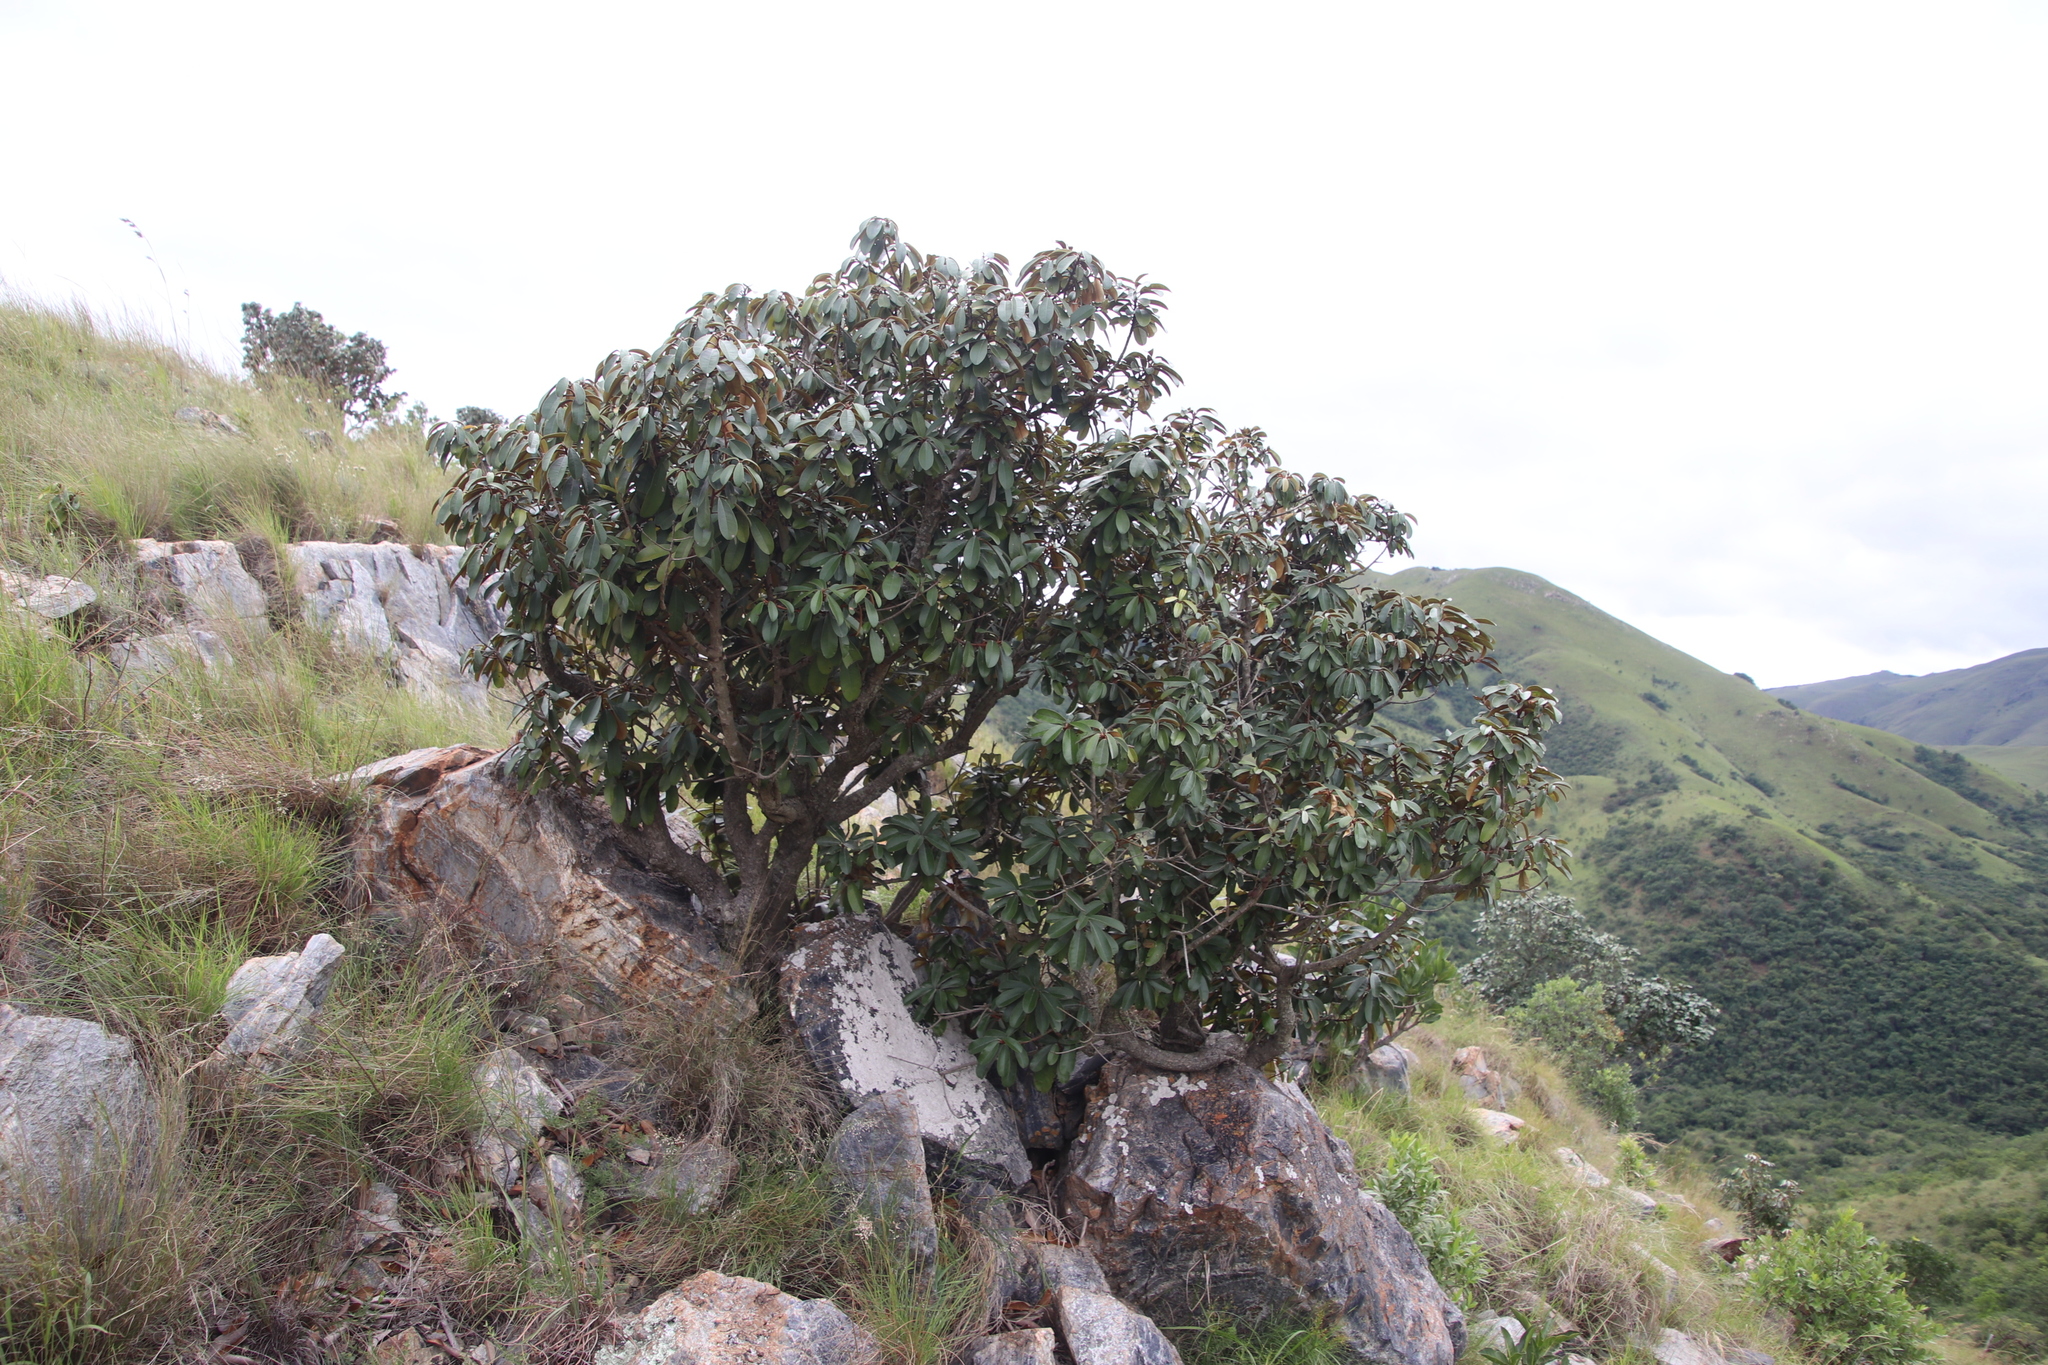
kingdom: Plantae
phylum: Tracheophyta
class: Magnoliopsida
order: Ericales
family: Sapotaceae
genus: Englerophytum
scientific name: Englerophytum magalismontanum
